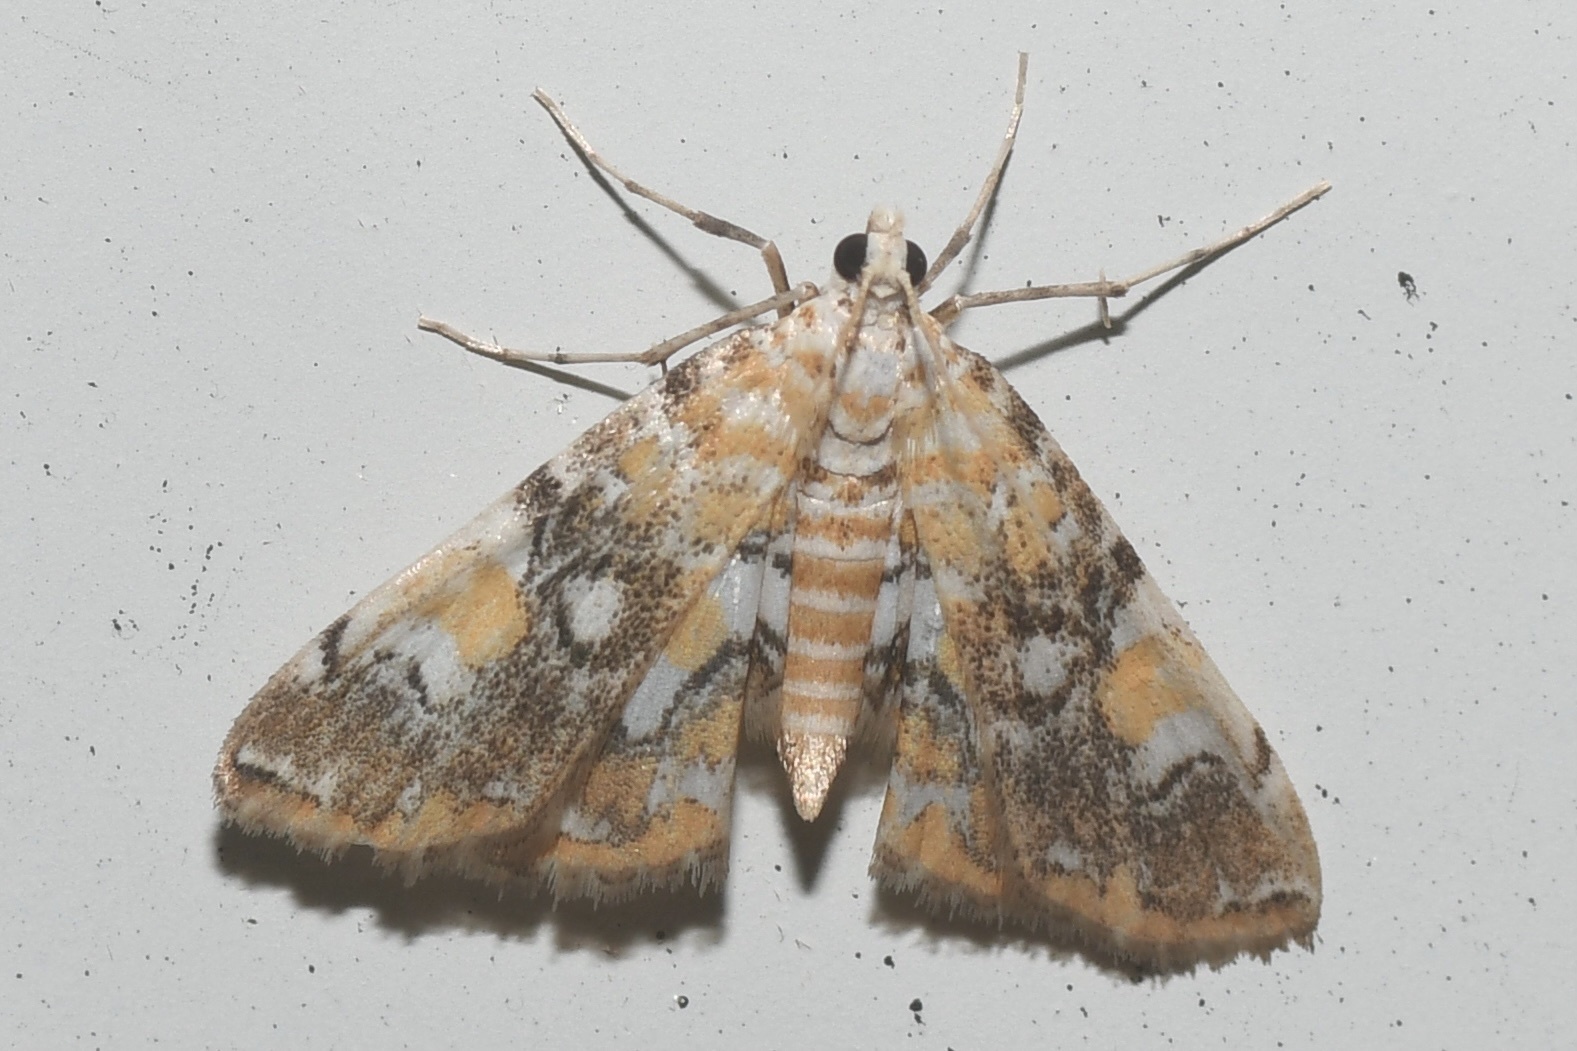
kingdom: Animalia
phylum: Arthropoda
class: Insecta
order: Lepidoptera
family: Crambidae
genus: Elophila
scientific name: Elophila faulalis
